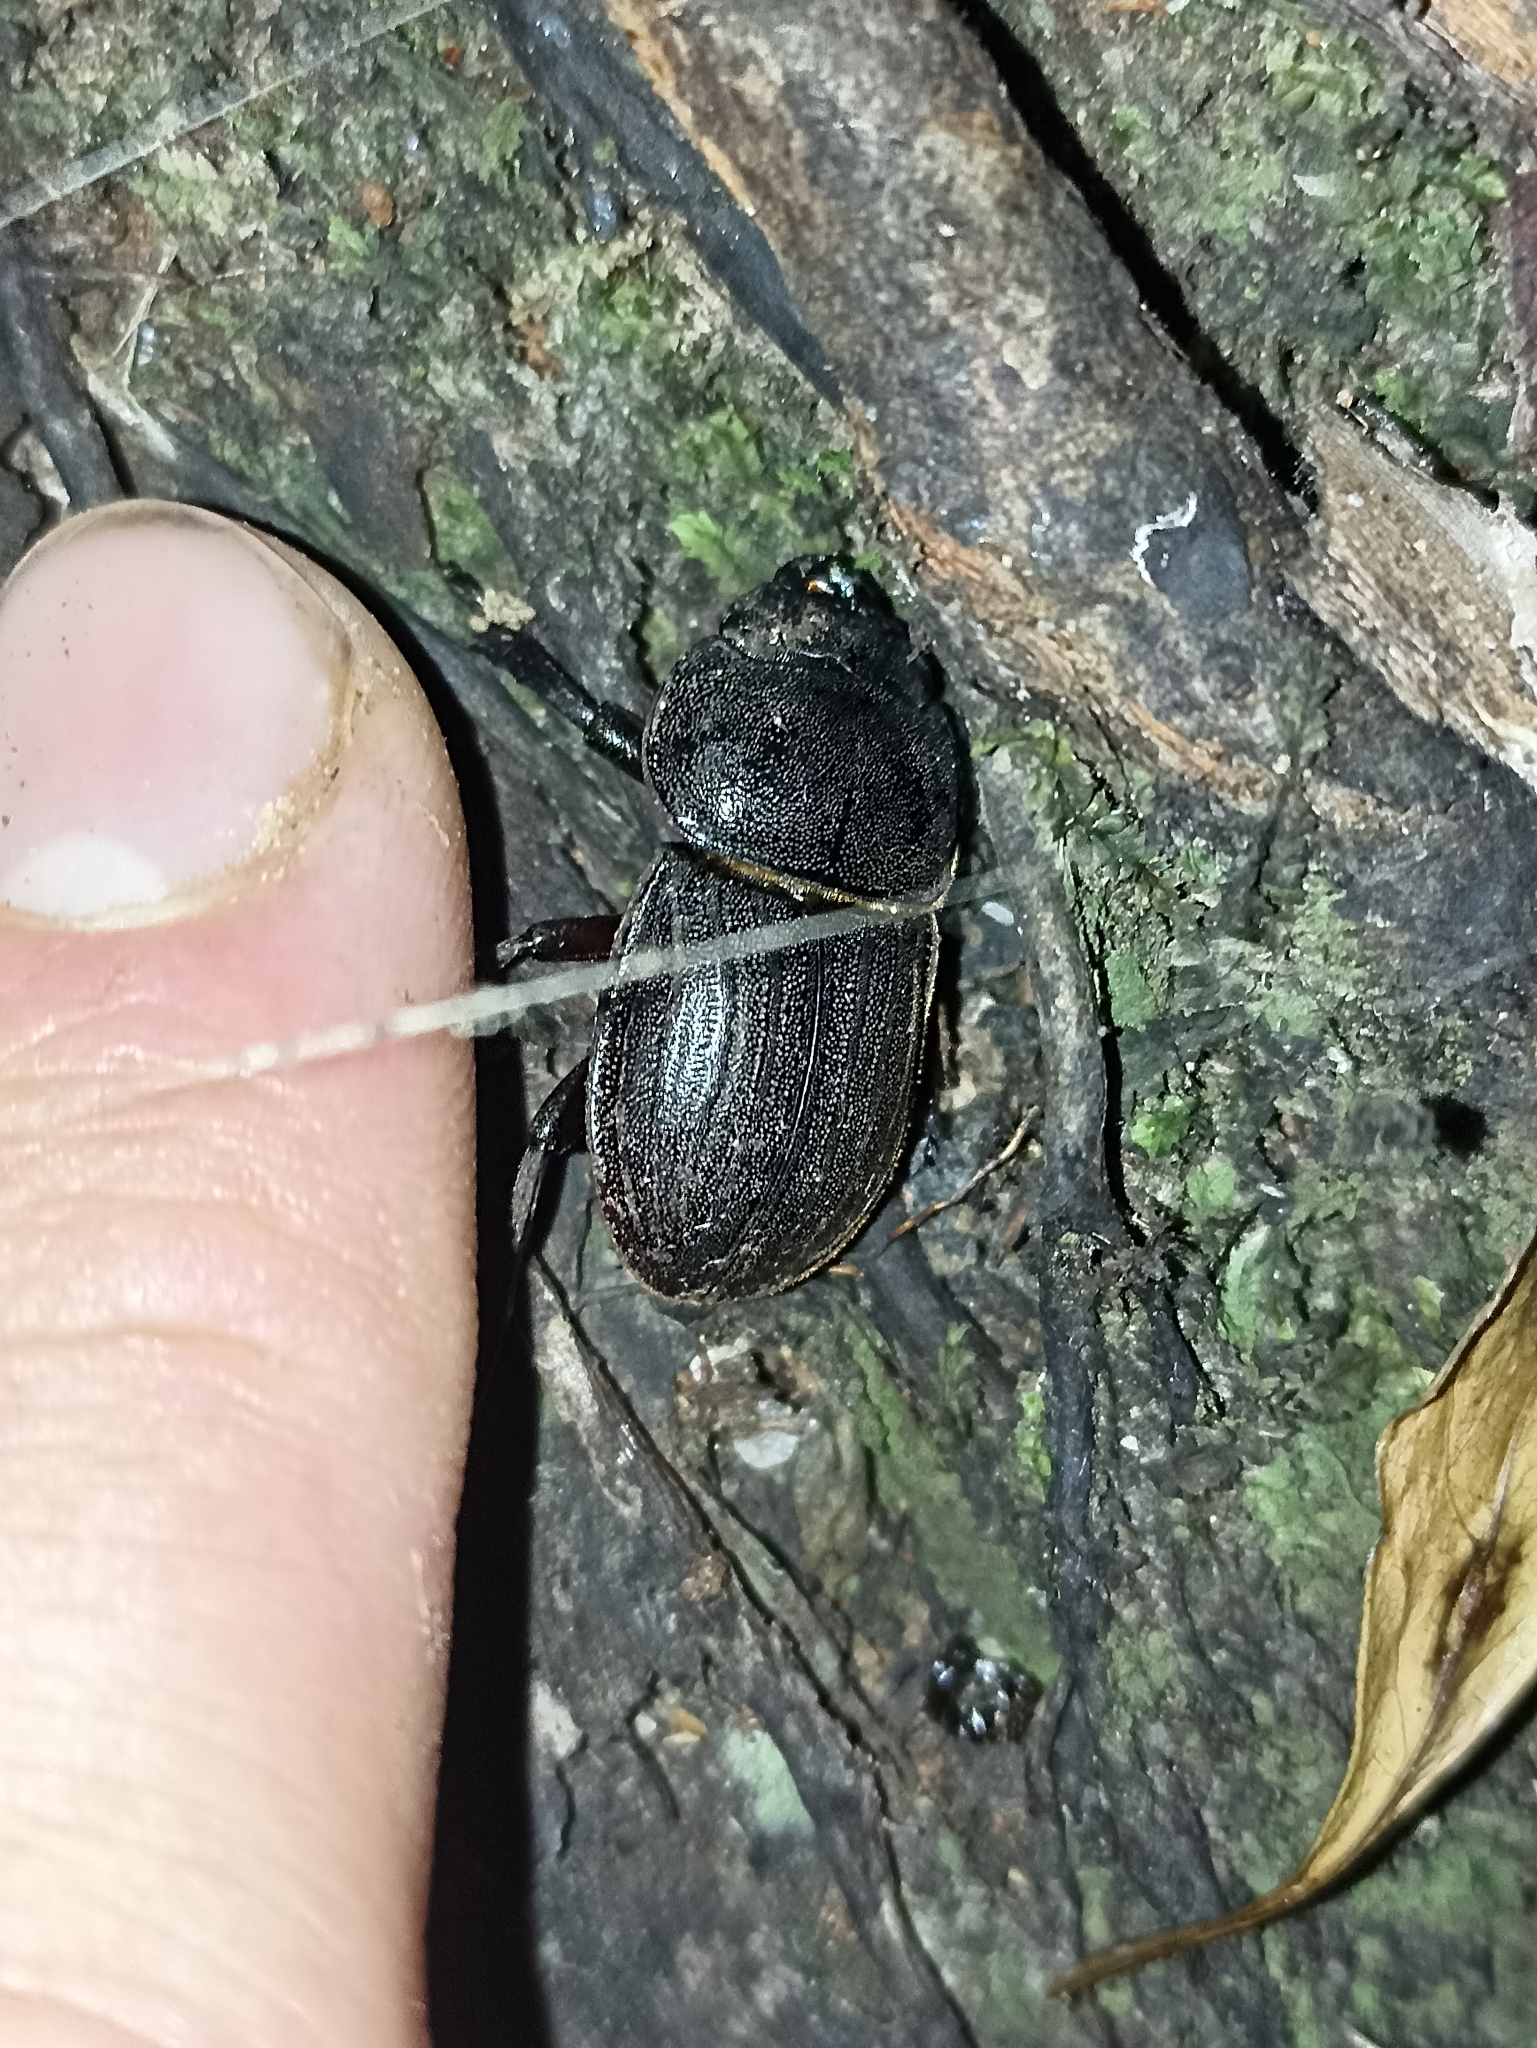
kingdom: Animalia
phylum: Arthropoda
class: Insecta
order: Coleoptera
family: Lucanidae
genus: Geodorcus
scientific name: Geodorcus helmsi
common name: Helm's stag beetle
